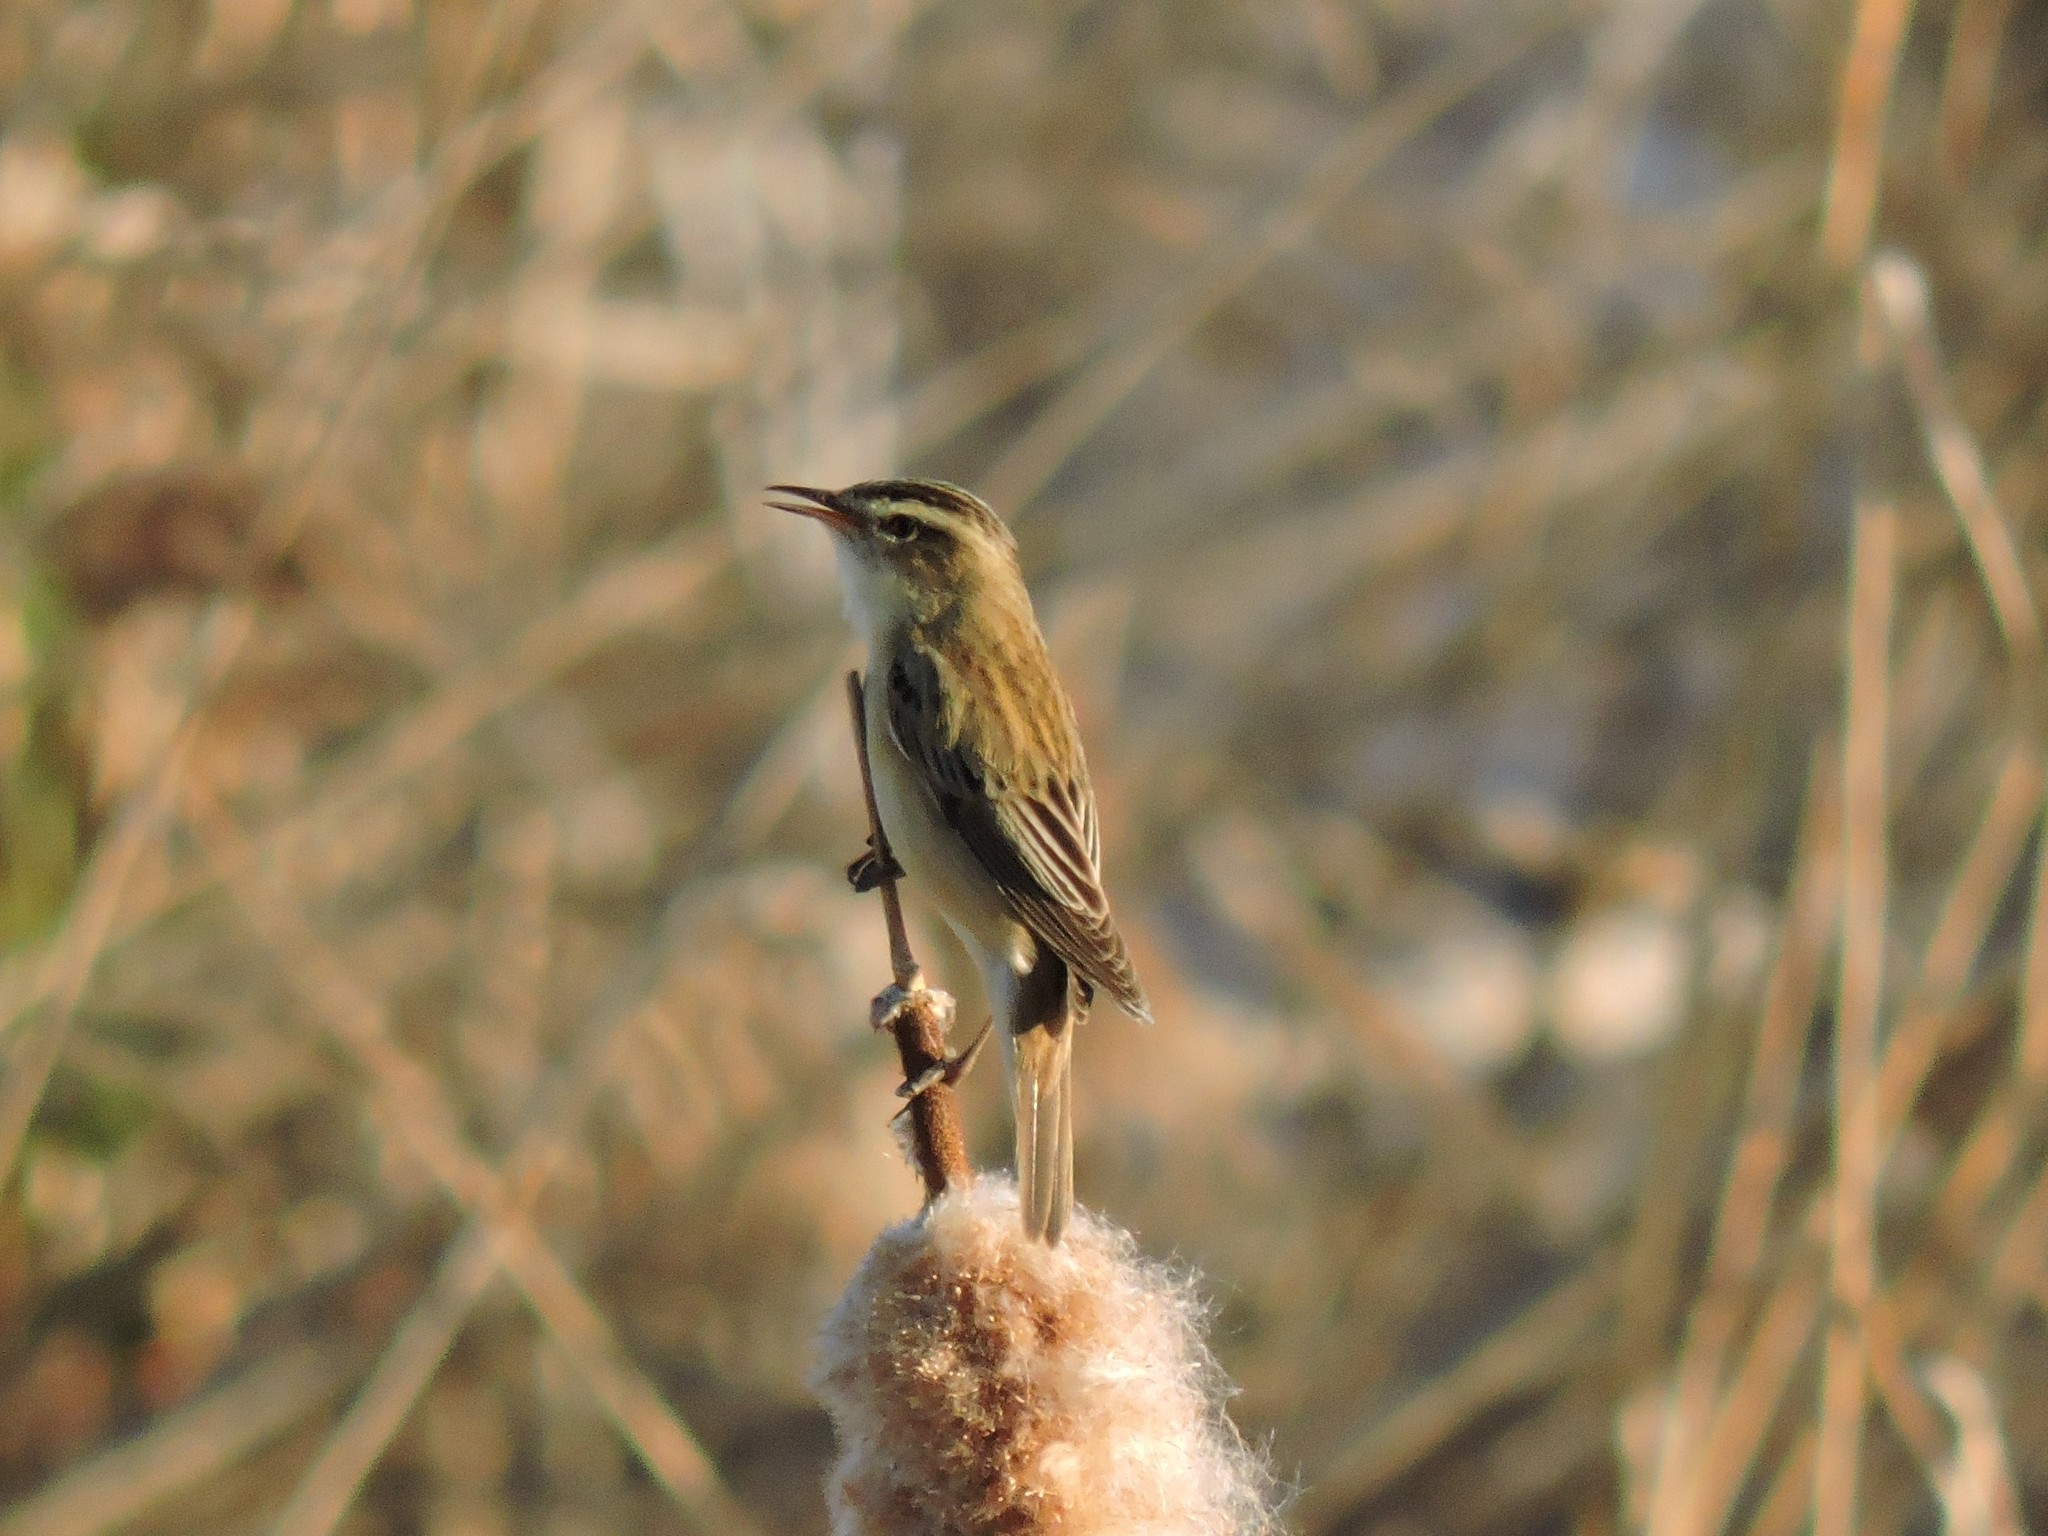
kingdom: Animalia
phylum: Chordata
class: Aves
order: Passeriformes
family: Acrocephalidae
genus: Acrocephalus
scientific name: Acrocephalus schoenobaenus
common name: Sedge warbler
